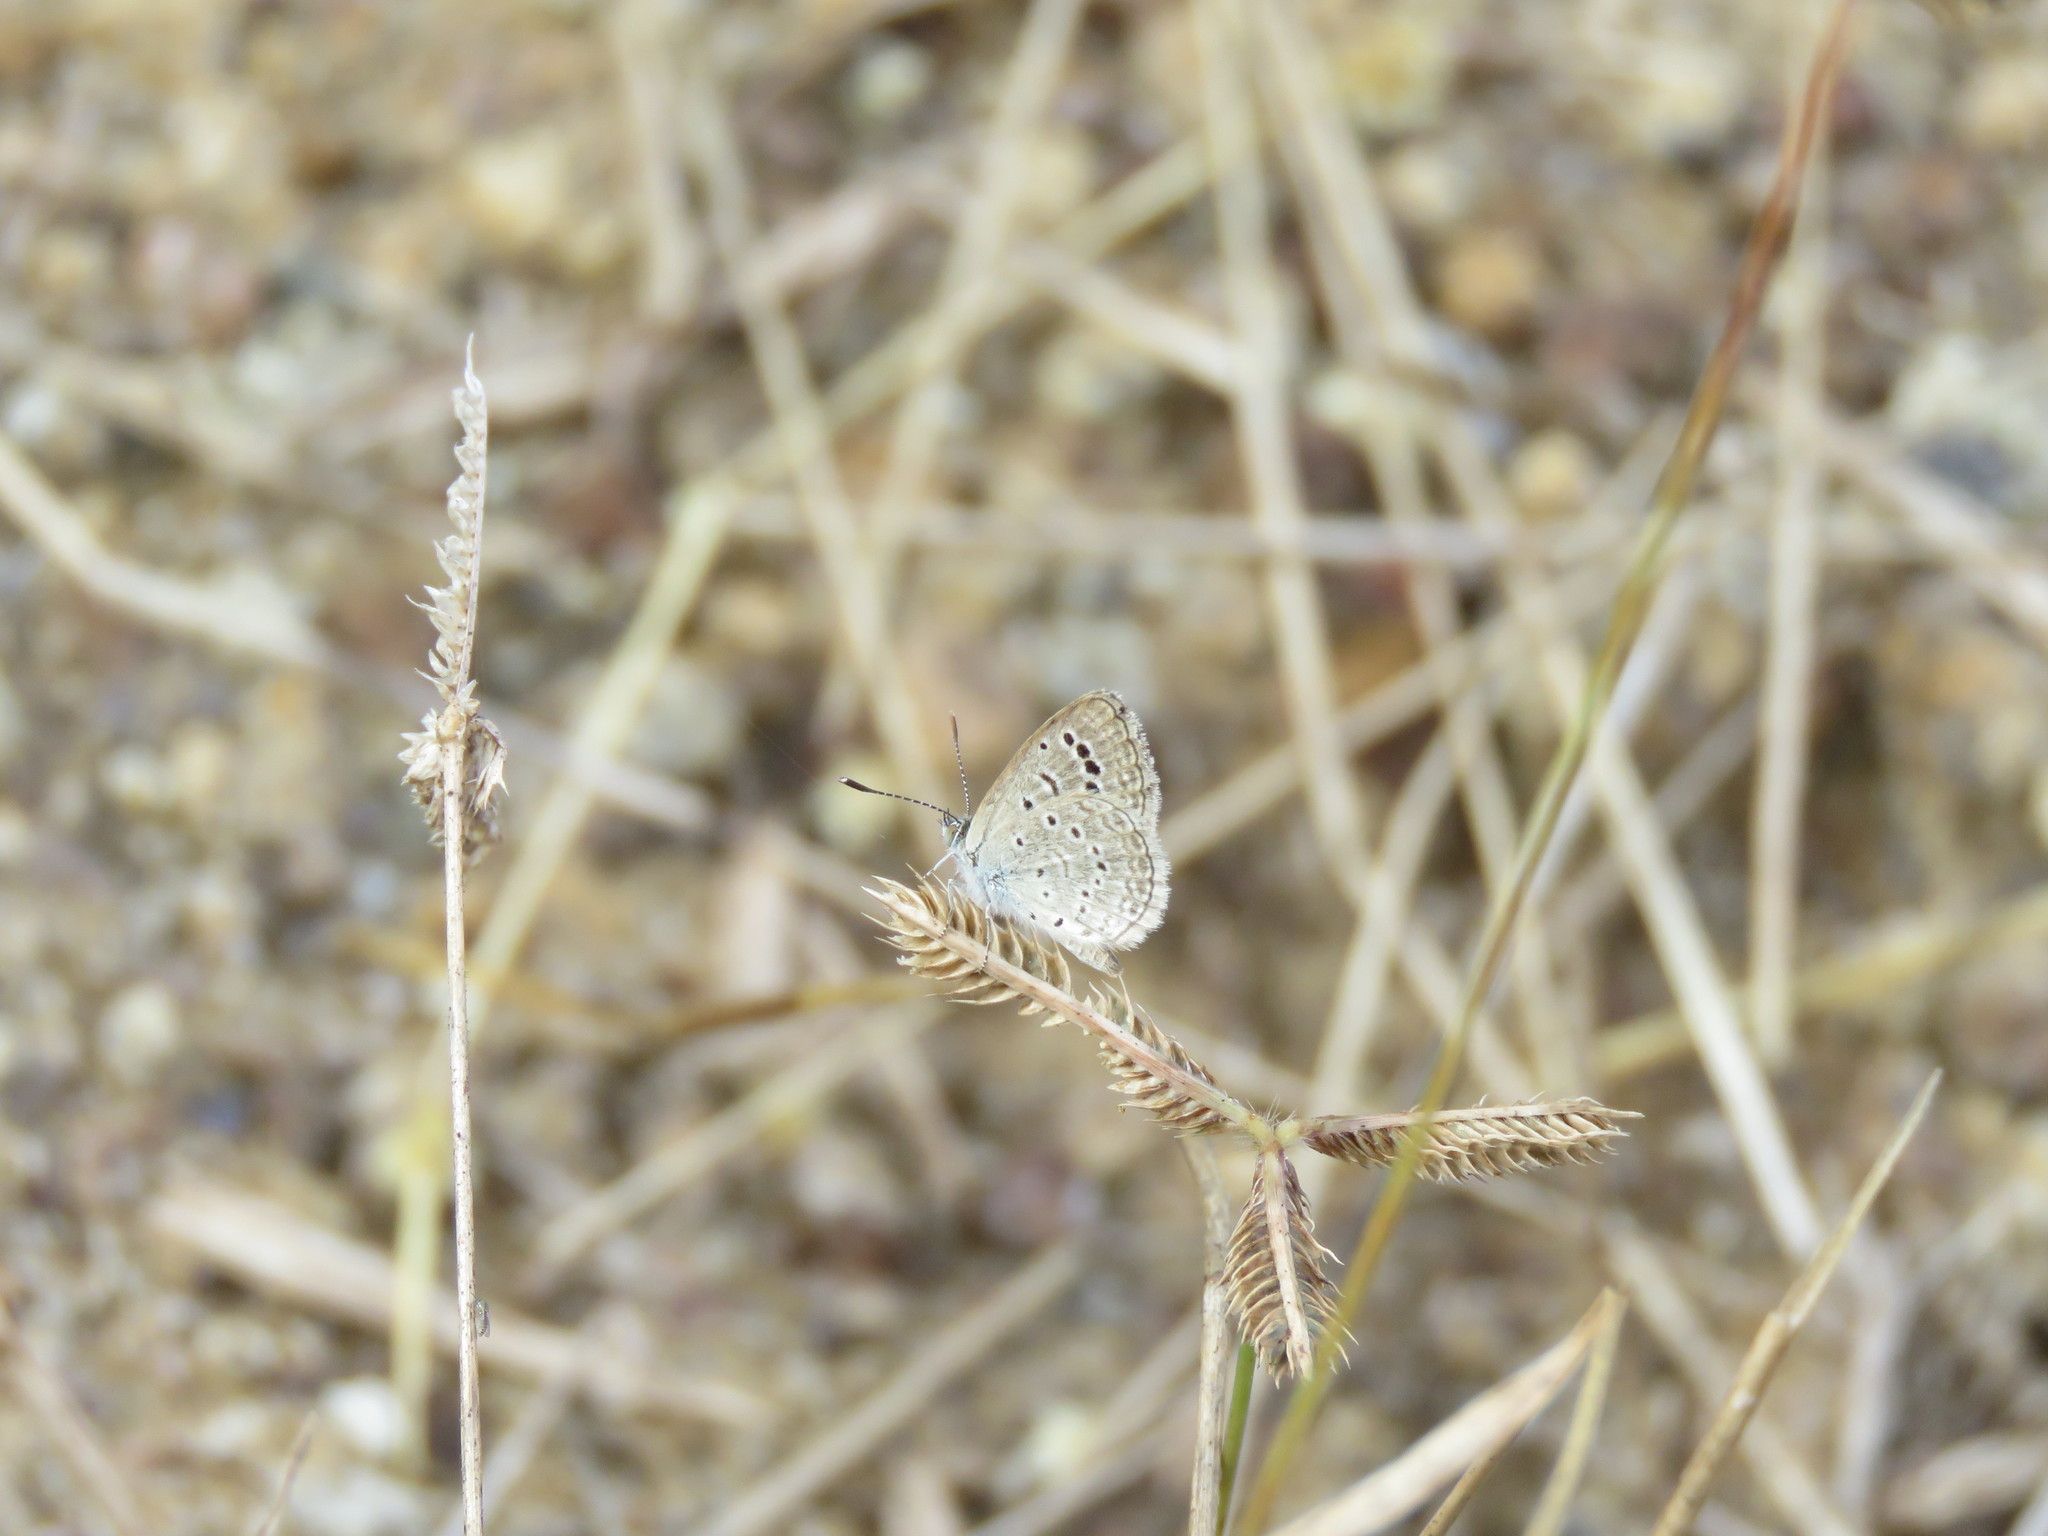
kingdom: Animalia
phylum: Arthropoda
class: Insecta
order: Lepidoptera
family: Lycaenidae
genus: Zizeeria
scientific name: Zizeeria karsandra
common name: Dark grass blue
